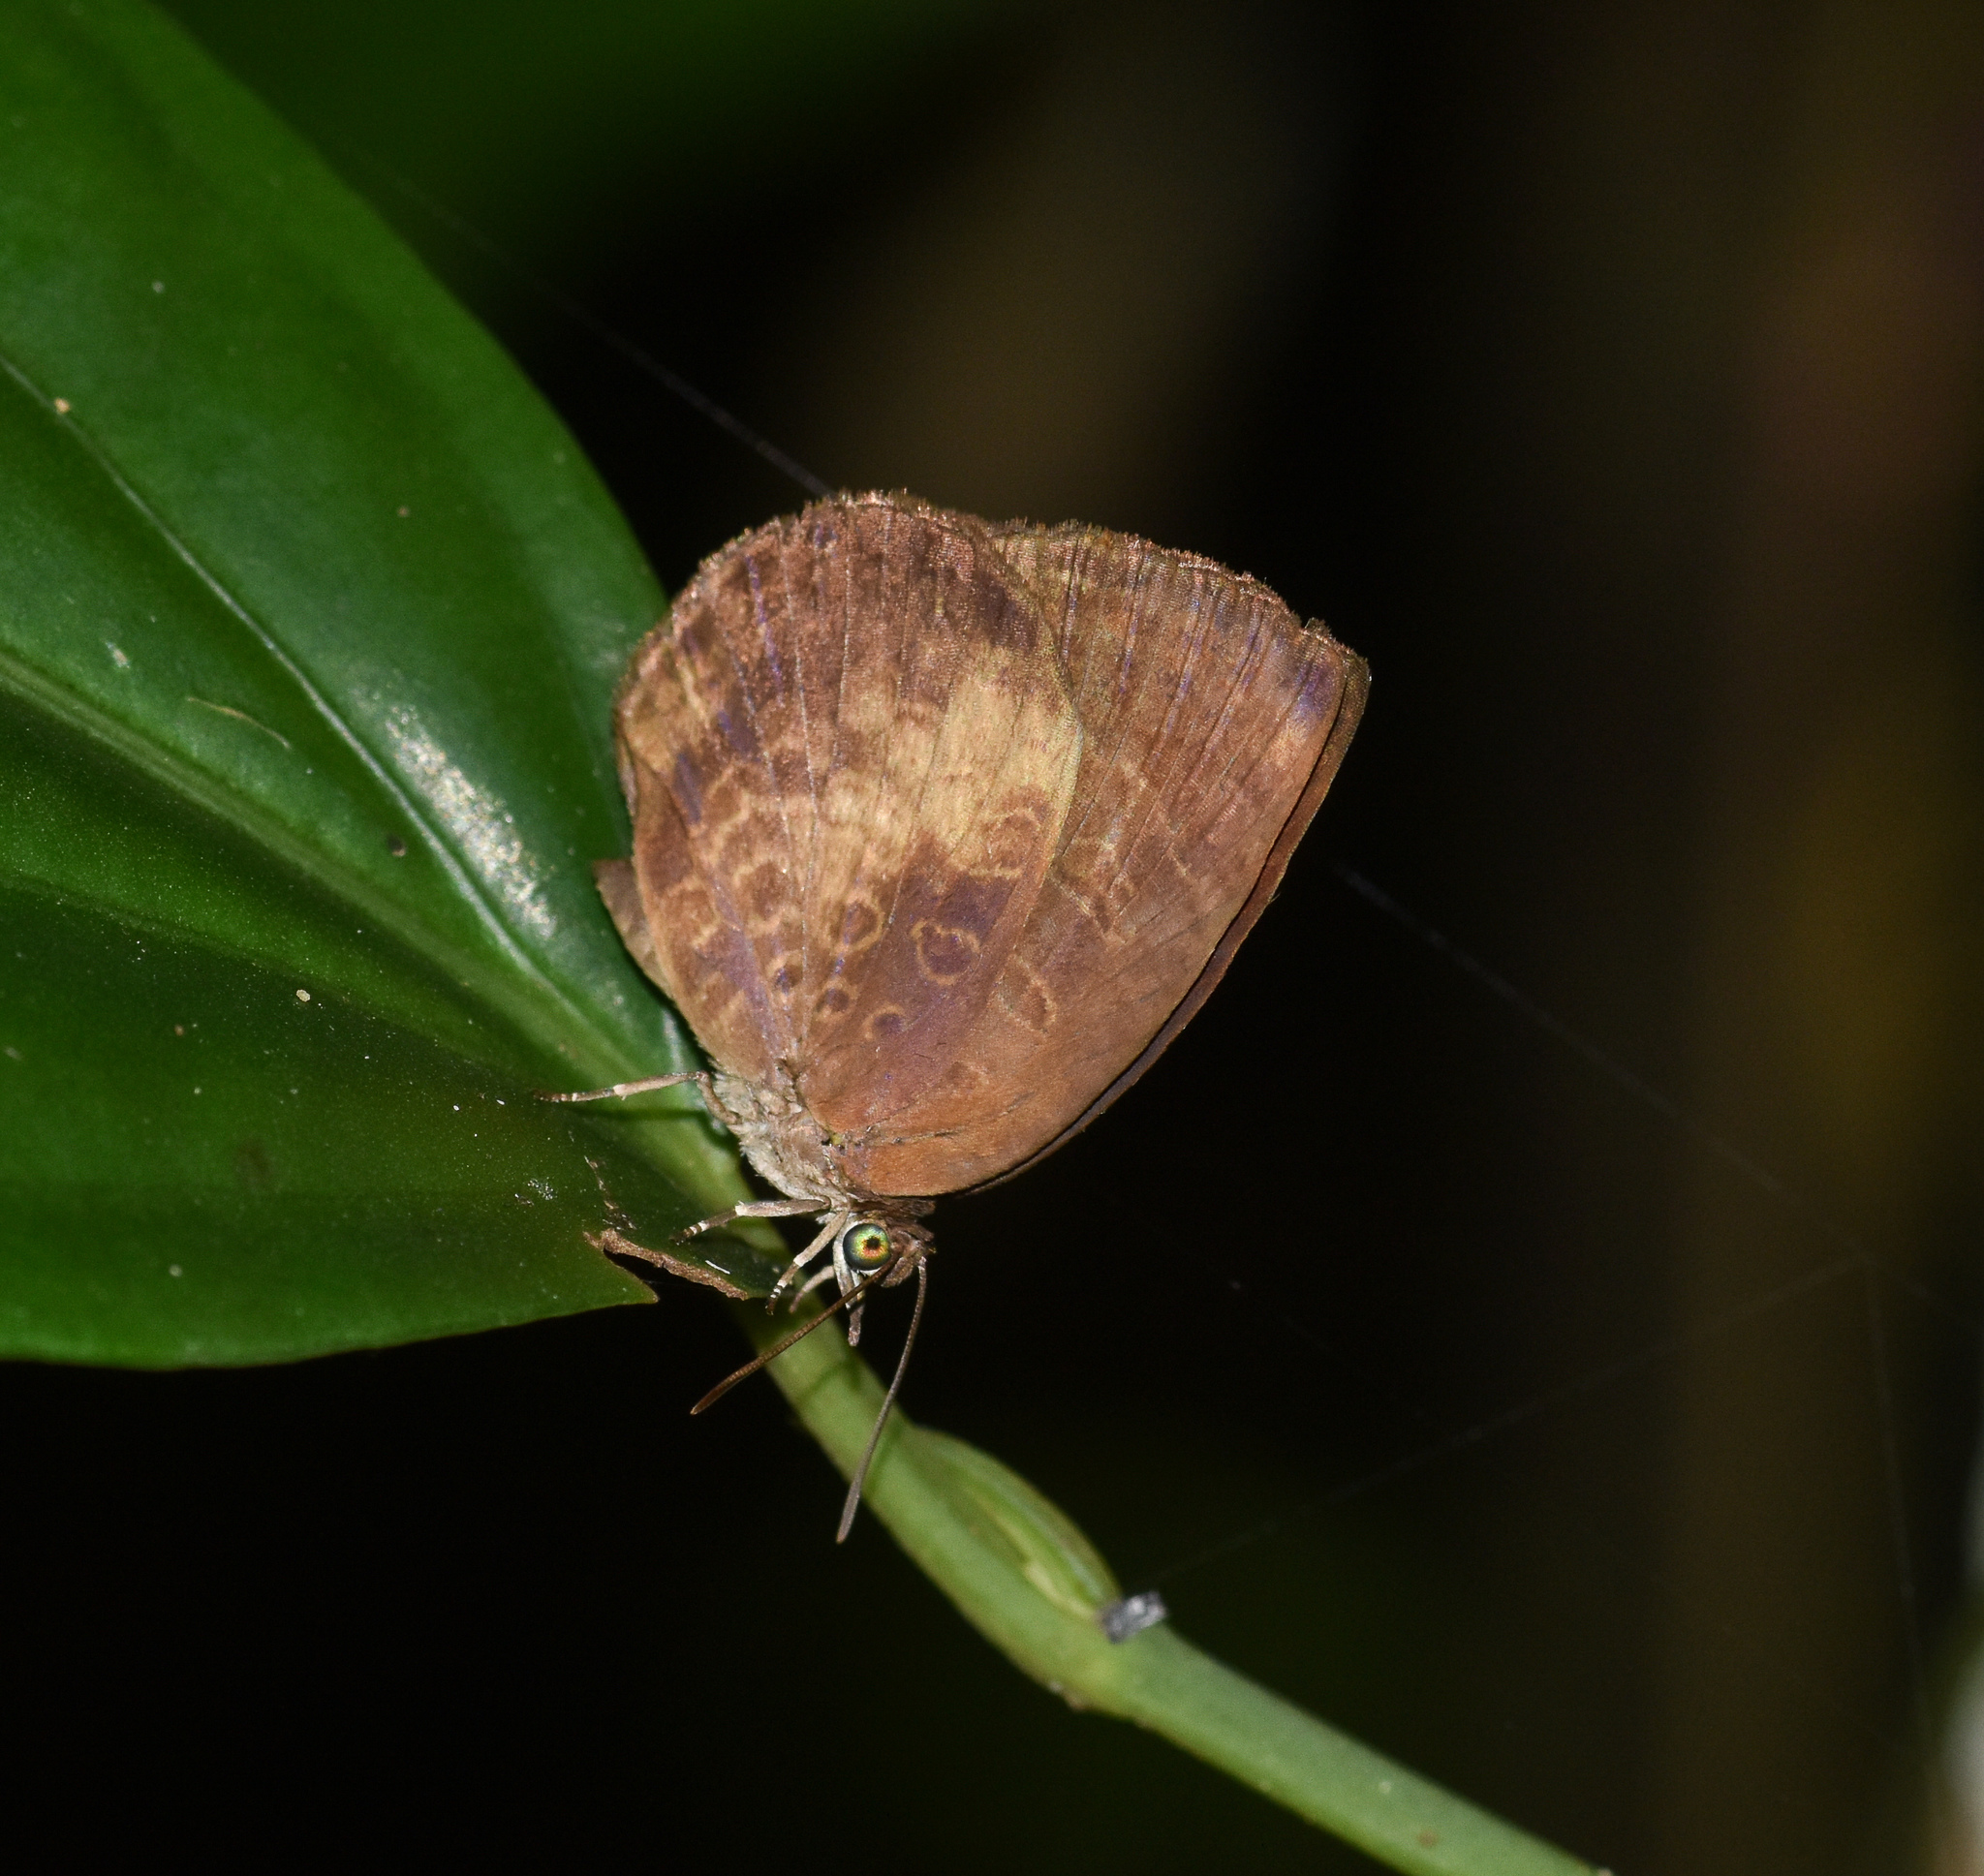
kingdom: Animalia
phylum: Arthropoda
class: Insecta
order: Lepidoptera
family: Lycaenidae
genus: Arhopala
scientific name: Arhopala perimuta
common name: Yellowdisc oakblue
